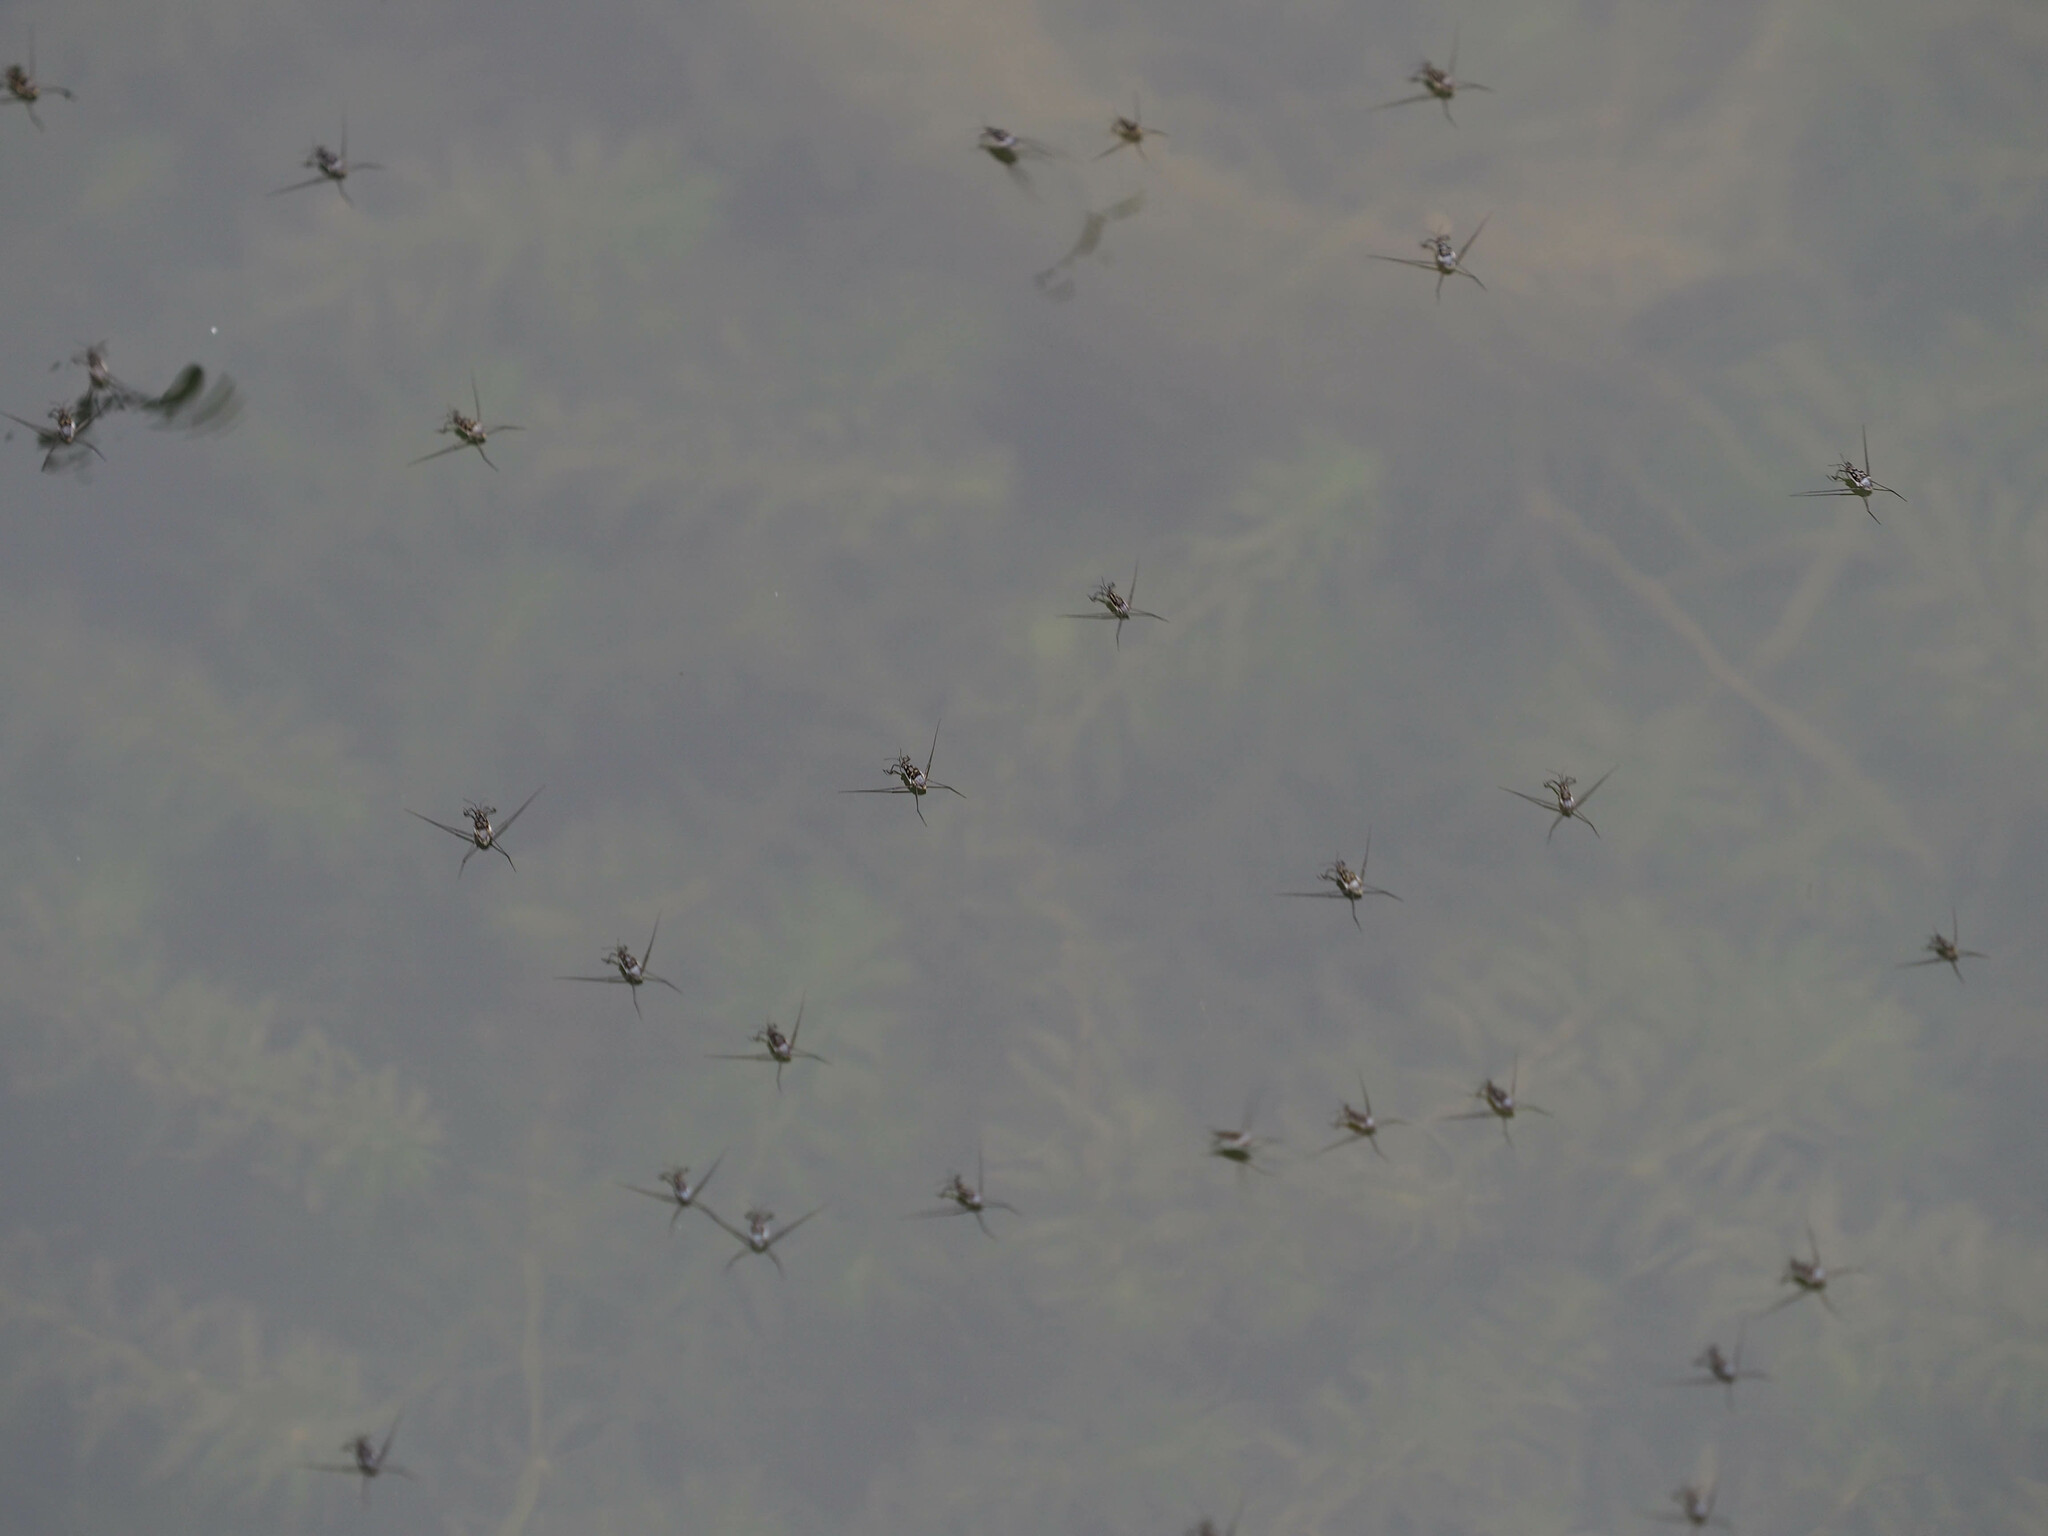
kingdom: Animalia
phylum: Arthropoda
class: Insecta
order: Hemiptera
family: Gerridae
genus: Trepobates
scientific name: Trepobates
